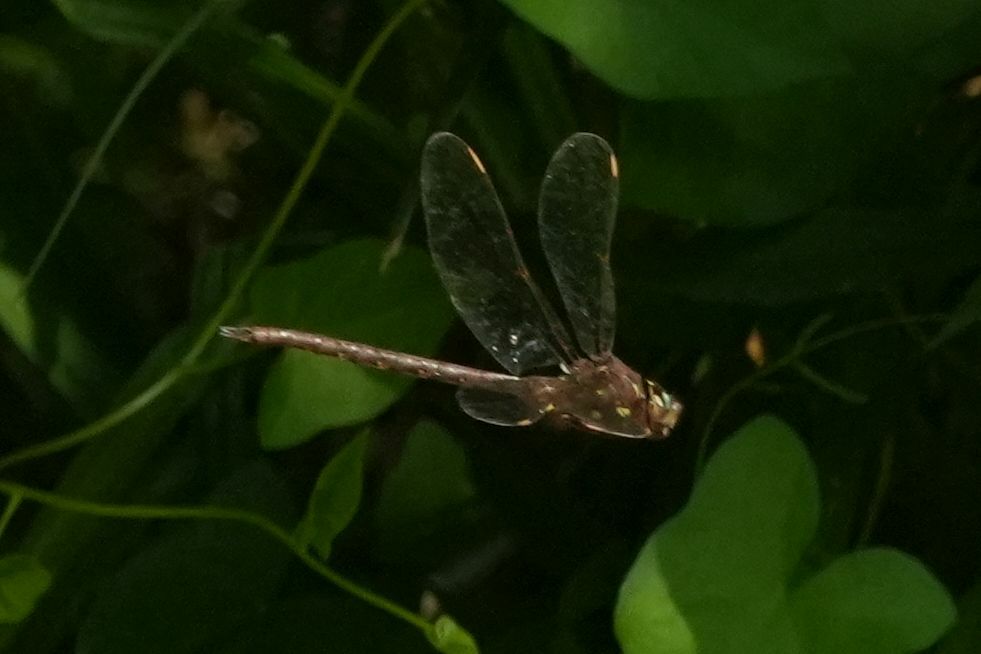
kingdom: Animalia
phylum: Arthropoda
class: Insecta
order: Odonata
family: Aeshnidae
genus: Boyeria
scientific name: Boyeria vinosa
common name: Fawn darner
